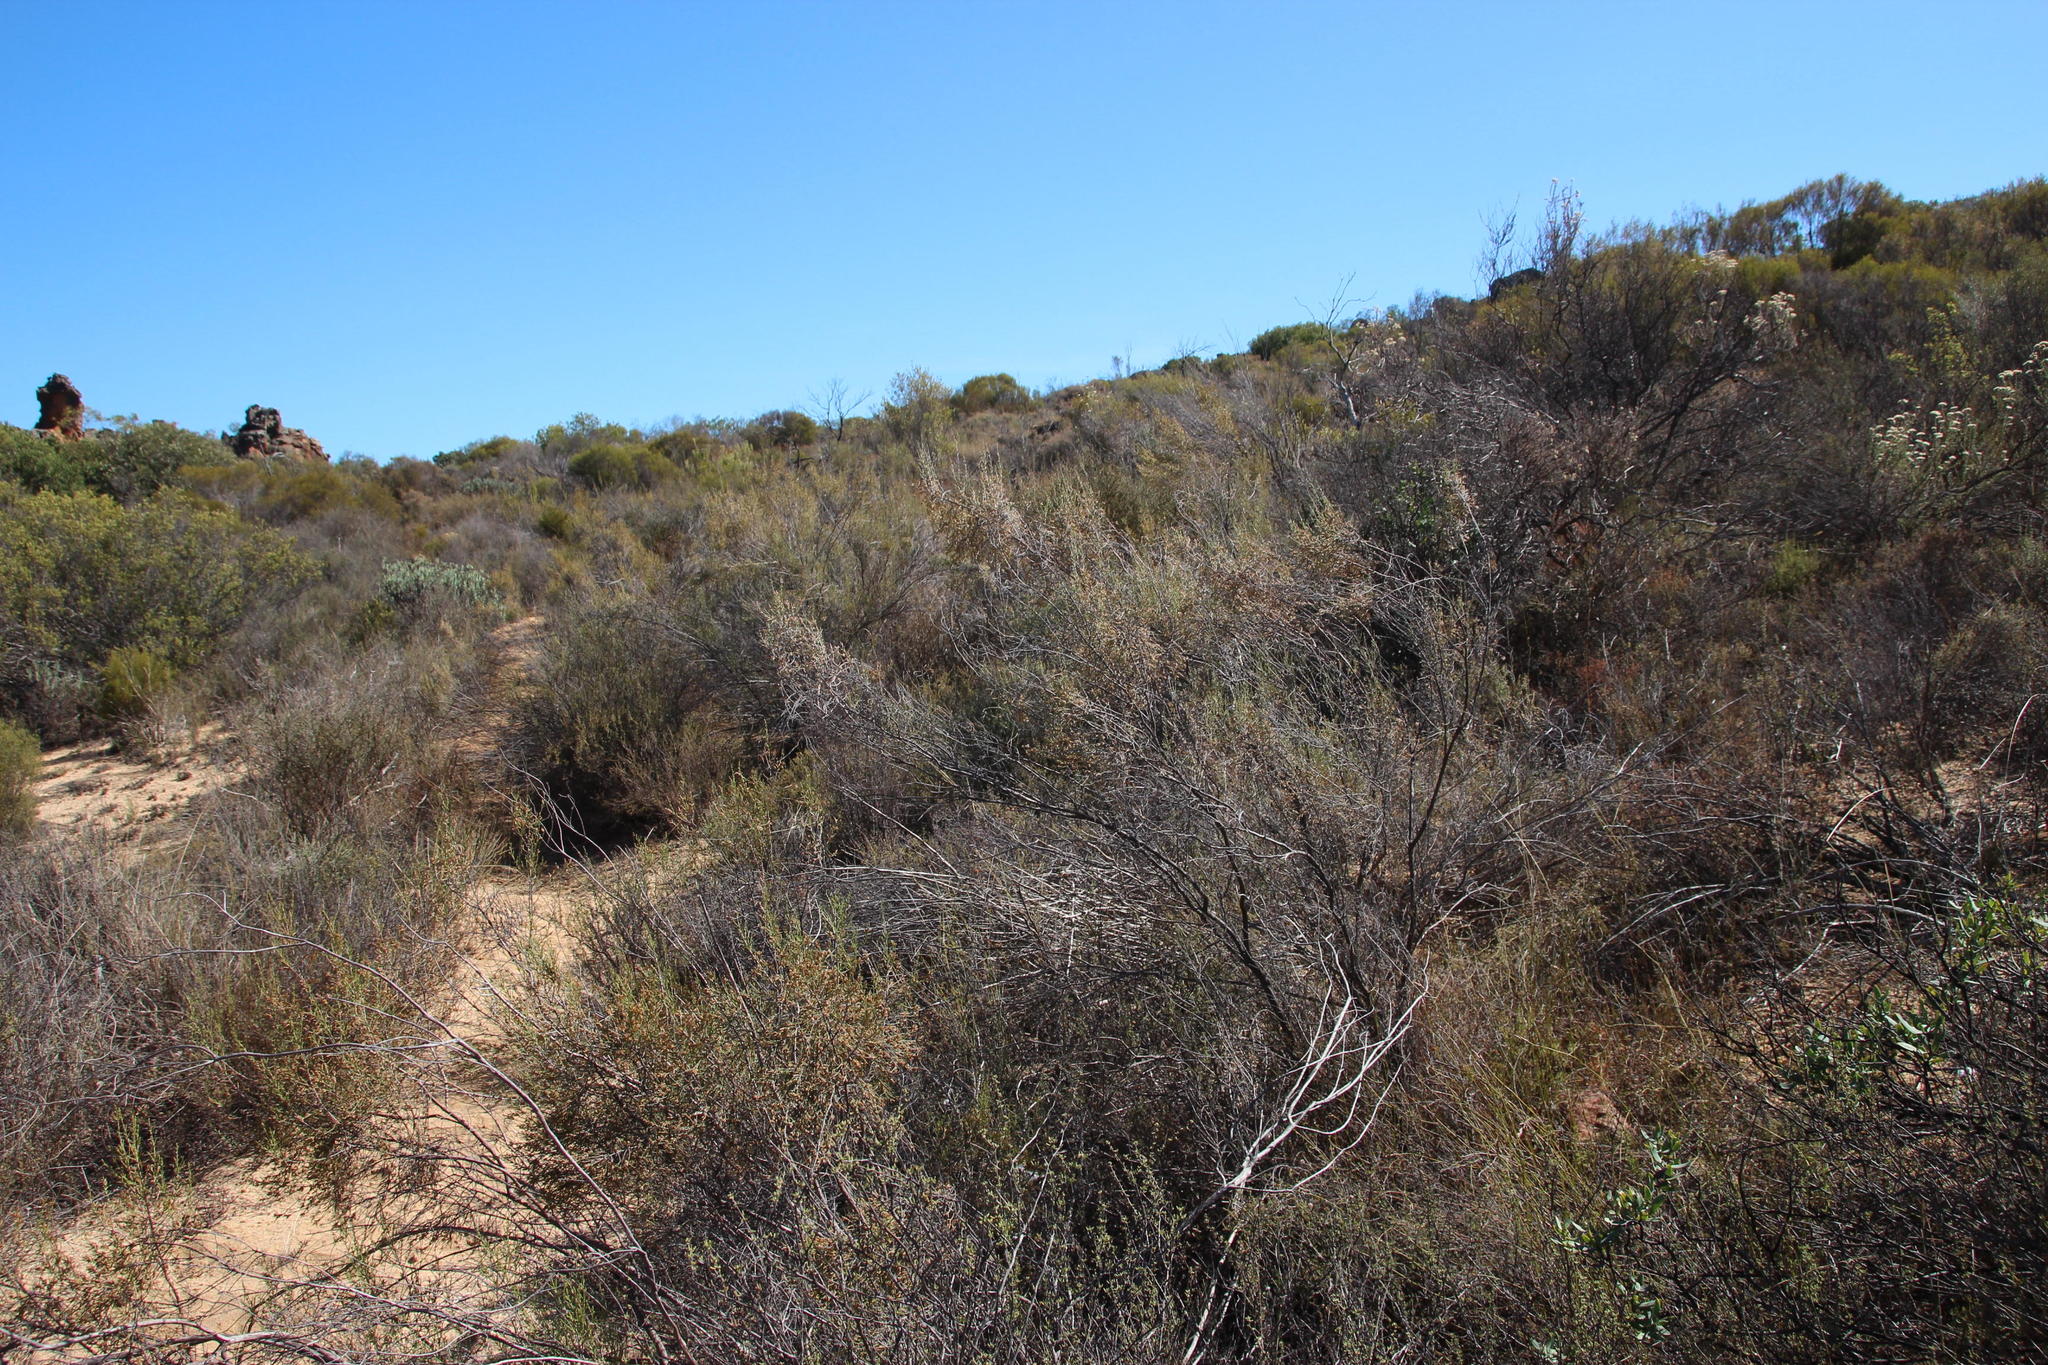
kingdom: Plantae
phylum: Tracheophyta
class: Magnoliopsida
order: Asterales
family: Asteraceae
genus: Dicerothamnus
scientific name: Dicerothamnus rhinocerotis
